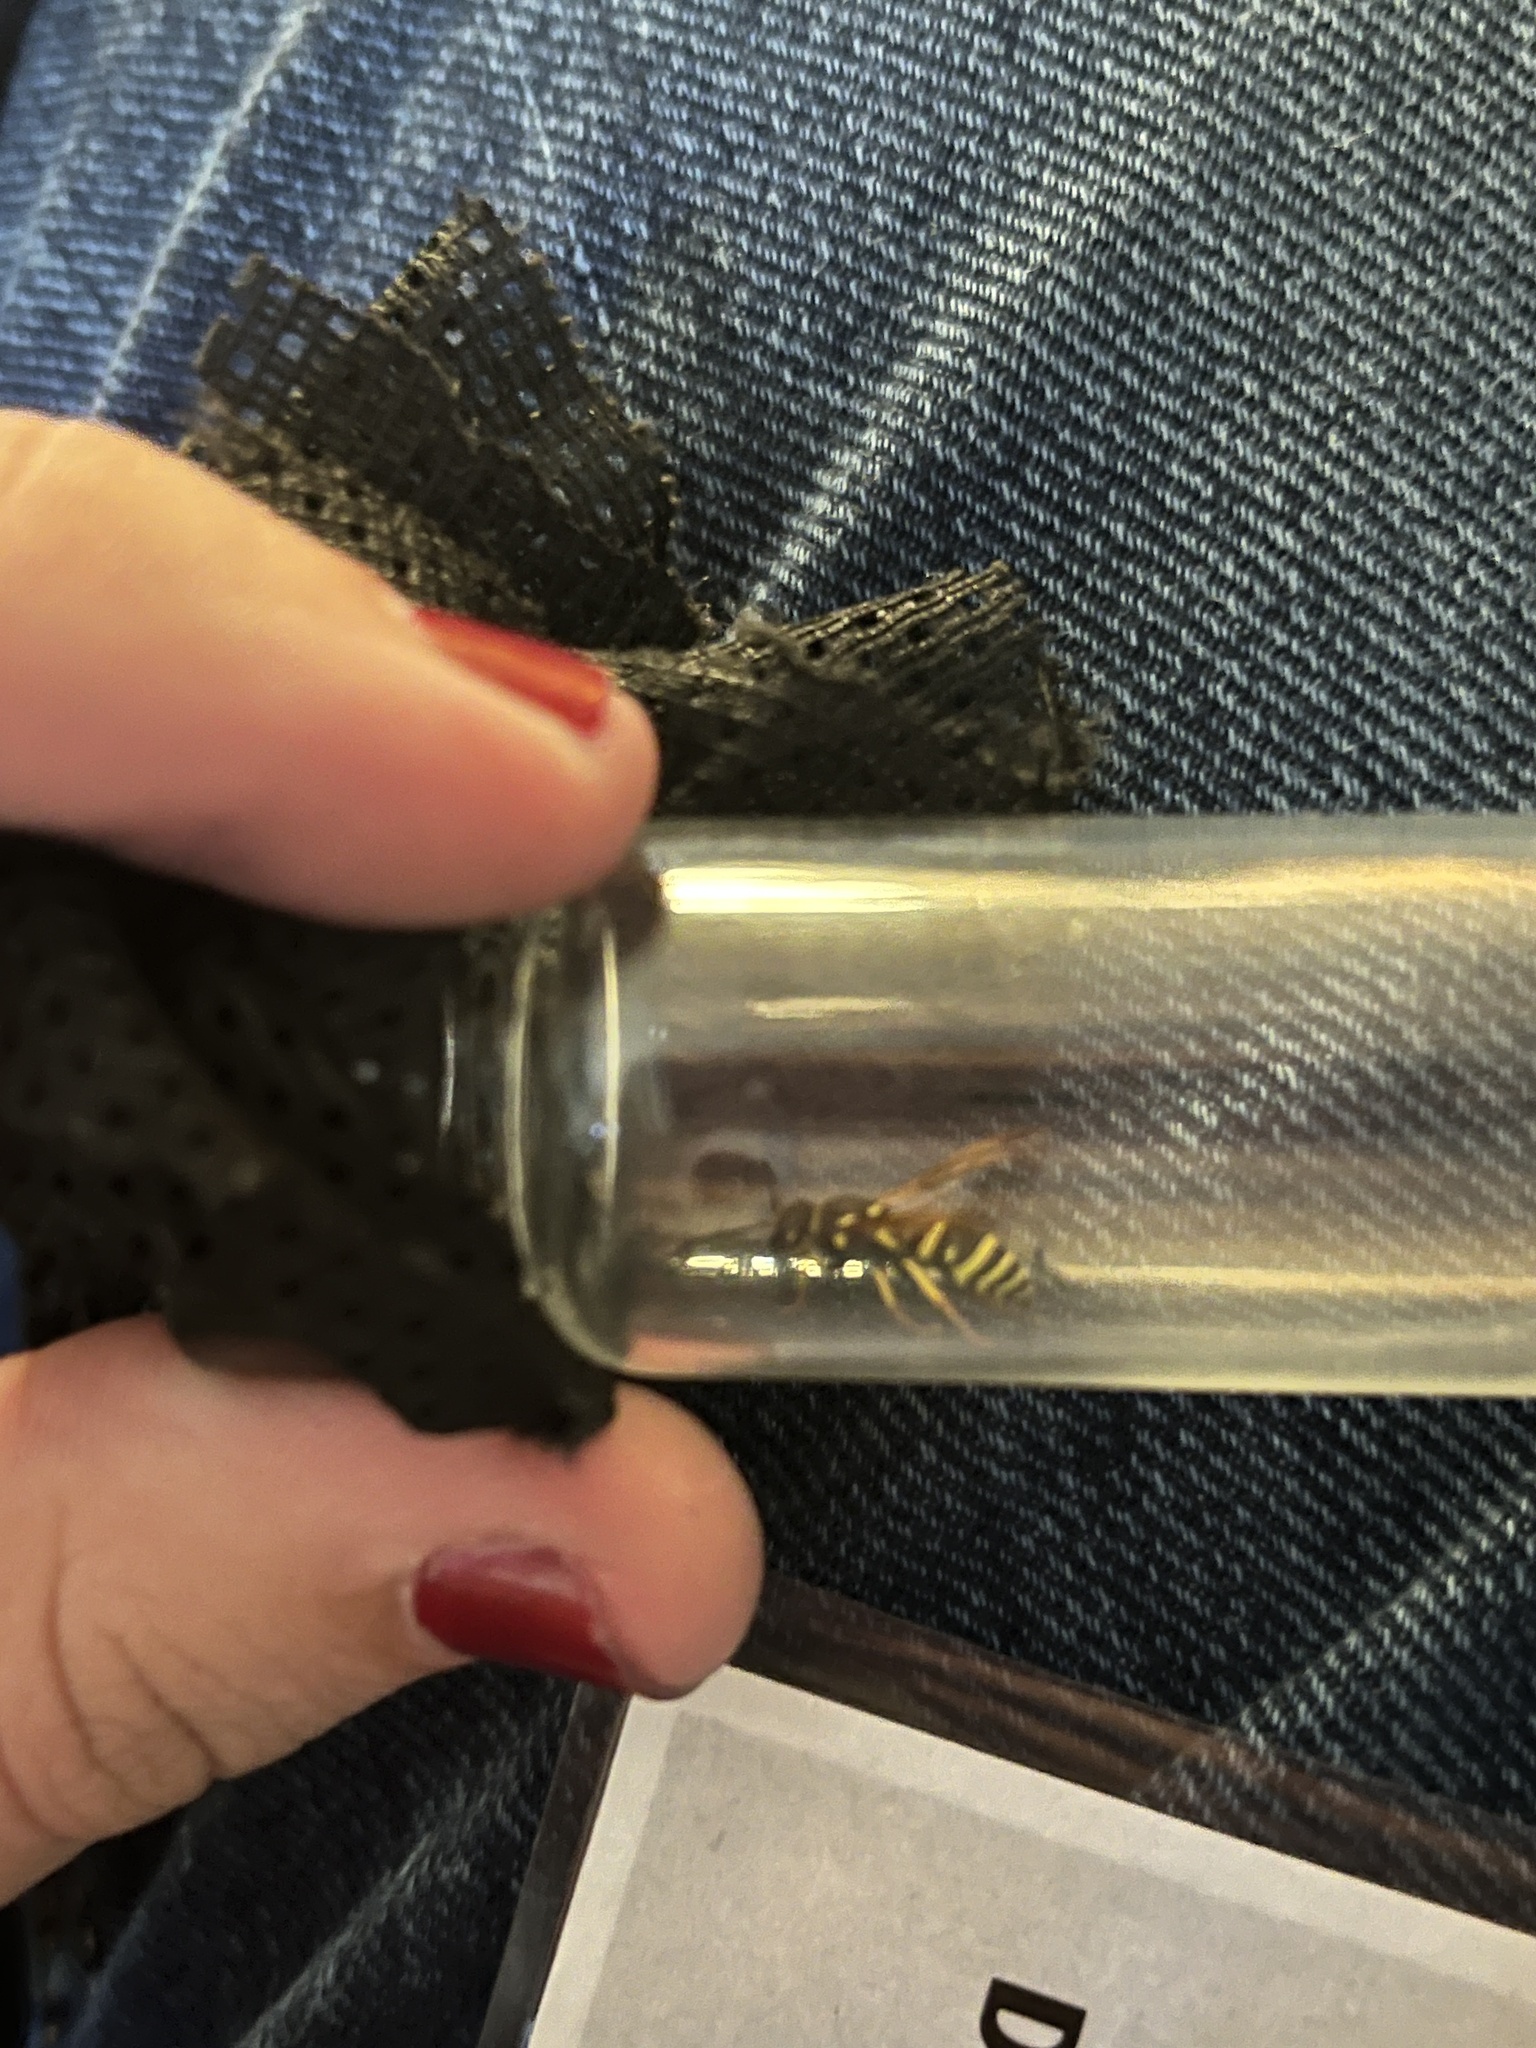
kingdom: Animalia
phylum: Arthropoda
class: Insecta
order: Hymenoptera
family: Eumenidae
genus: Polistes
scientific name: Polistes dominula
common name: Paper wasp
